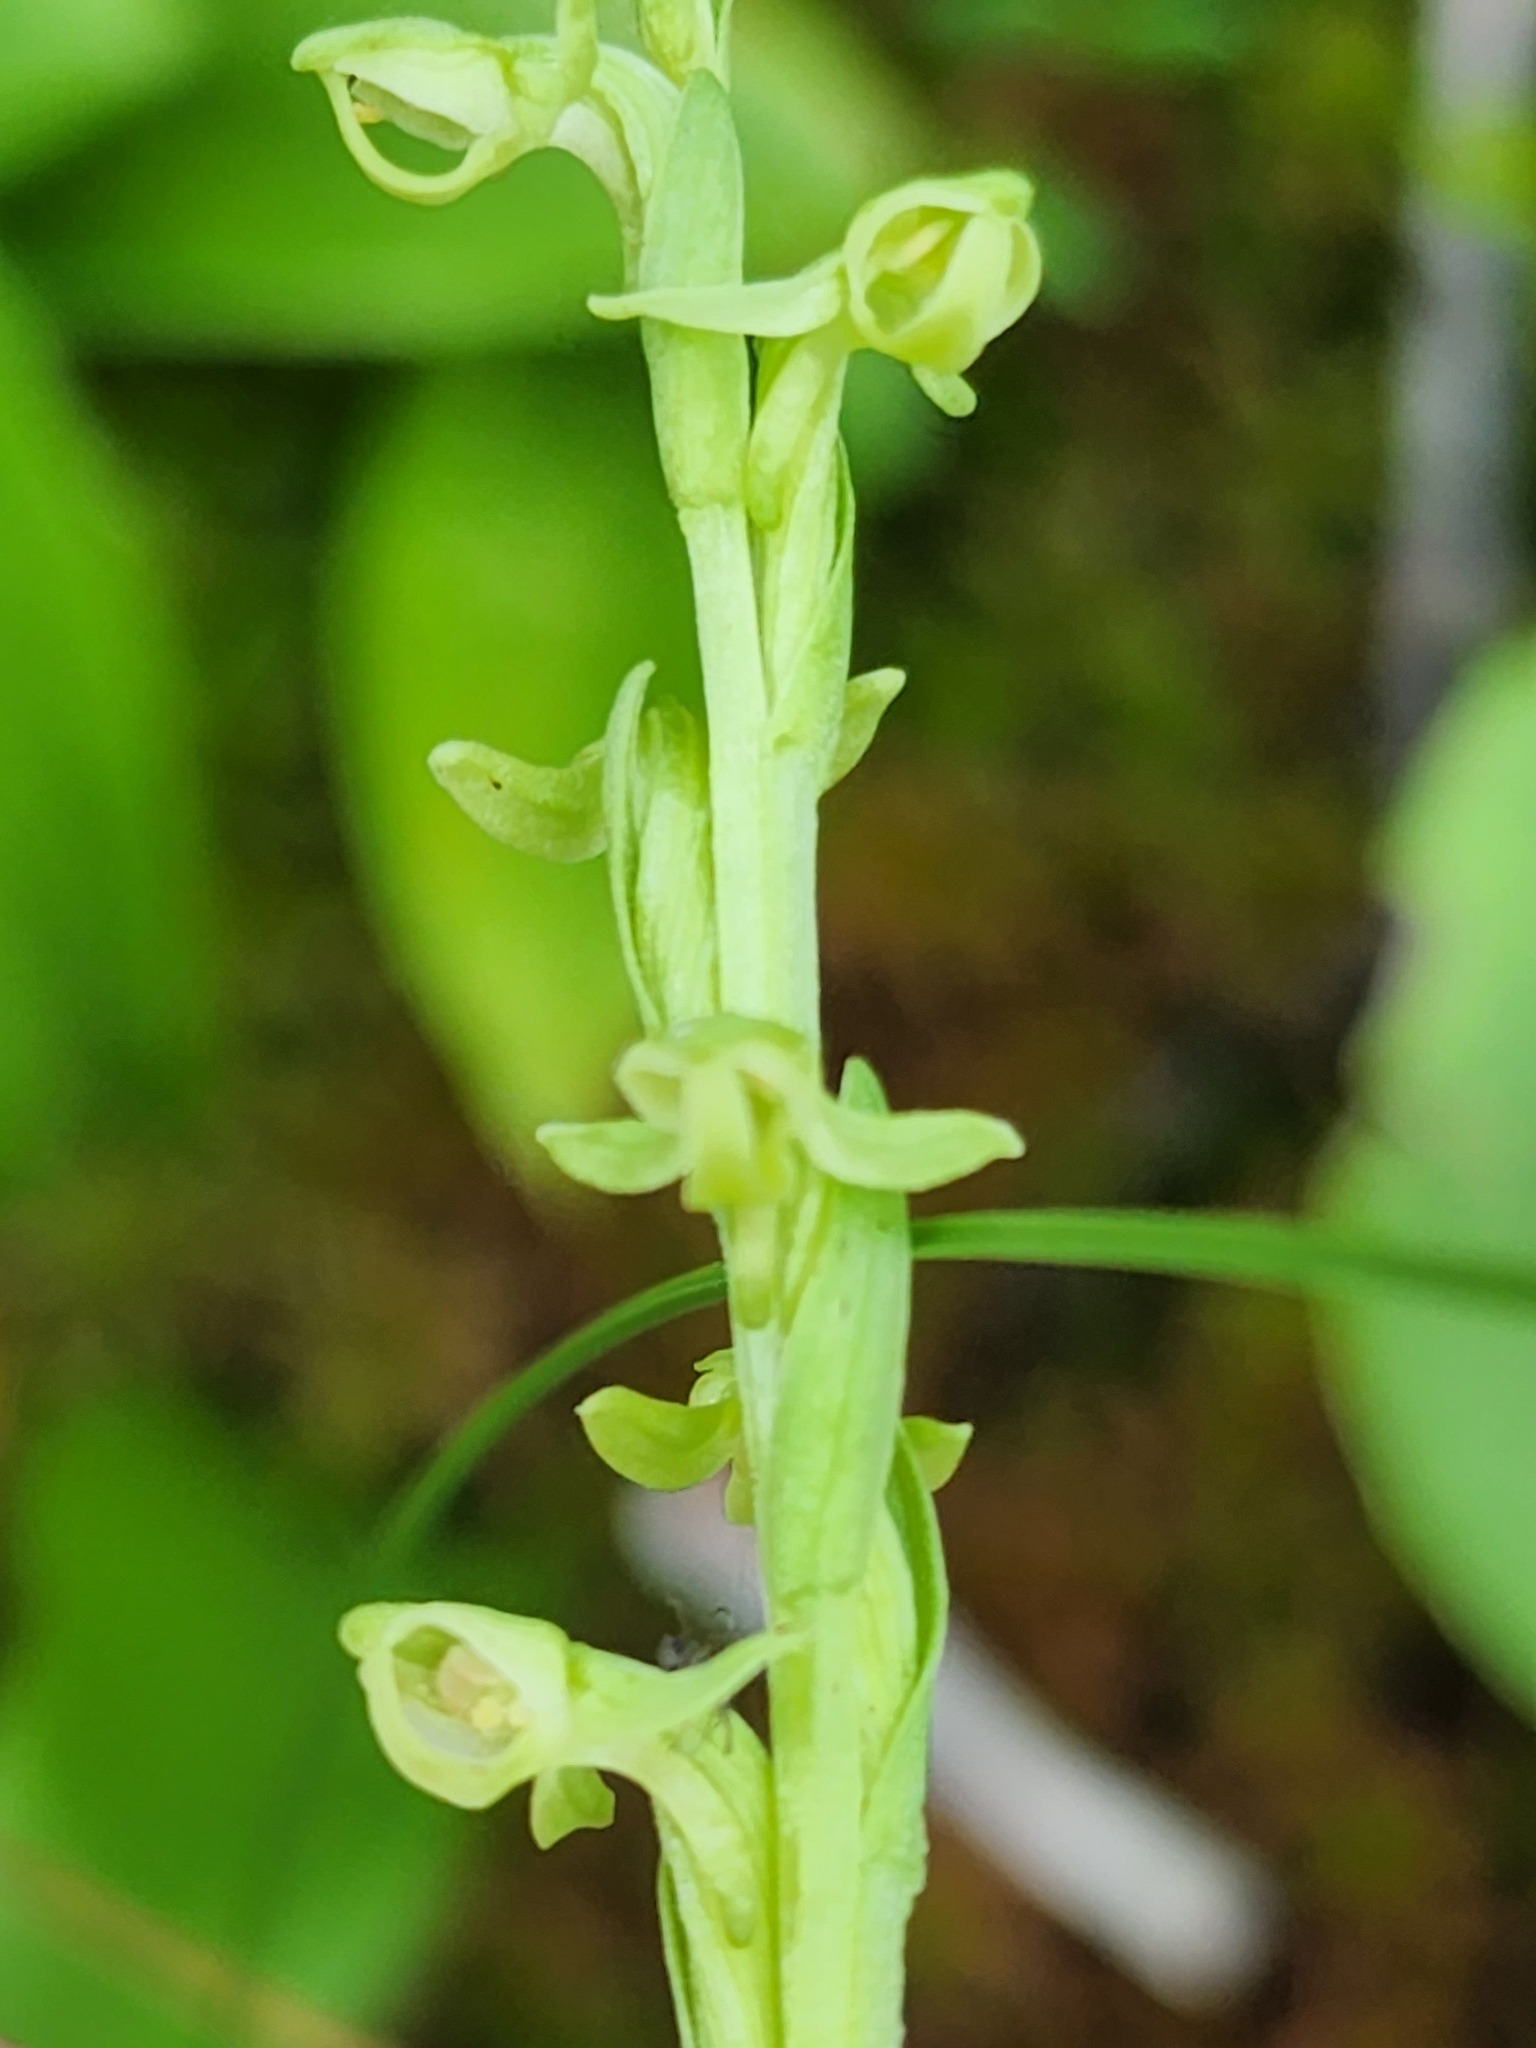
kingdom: Plantae
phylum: Tracheophyta
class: Liliopsida
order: Asparagales
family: Orchidaceae
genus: Platanthera
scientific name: Platanthera huronensis
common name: Fragrant green orchid
